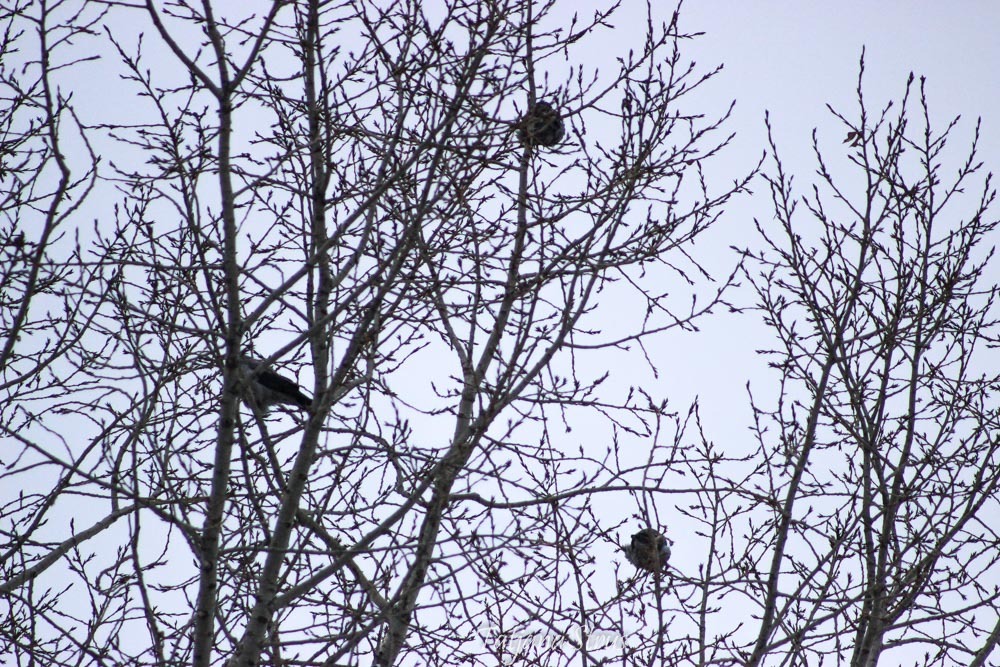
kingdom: Animalia
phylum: Chordata
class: Aves
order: Passeriformes
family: Corvidae
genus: Corvus
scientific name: Corvus cornix
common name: Hooded crow
